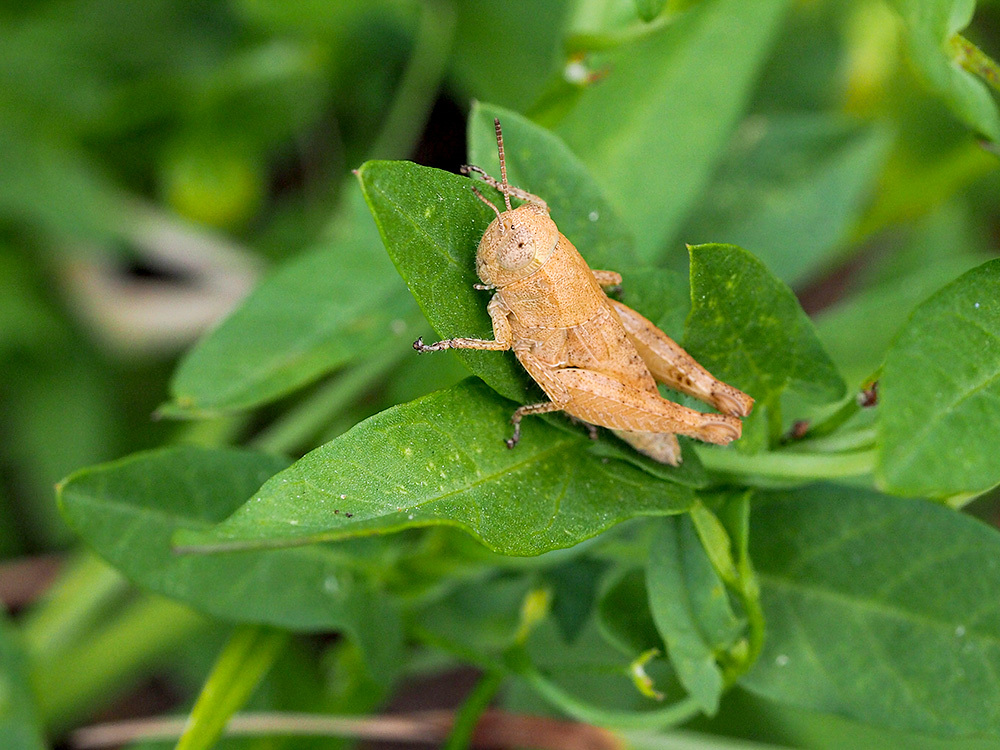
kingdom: Animalia
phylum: Arthropoda
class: Insecta
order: Orthoptera
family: Acrididae
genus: Pezotettix
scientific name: Pezotettix giornae
